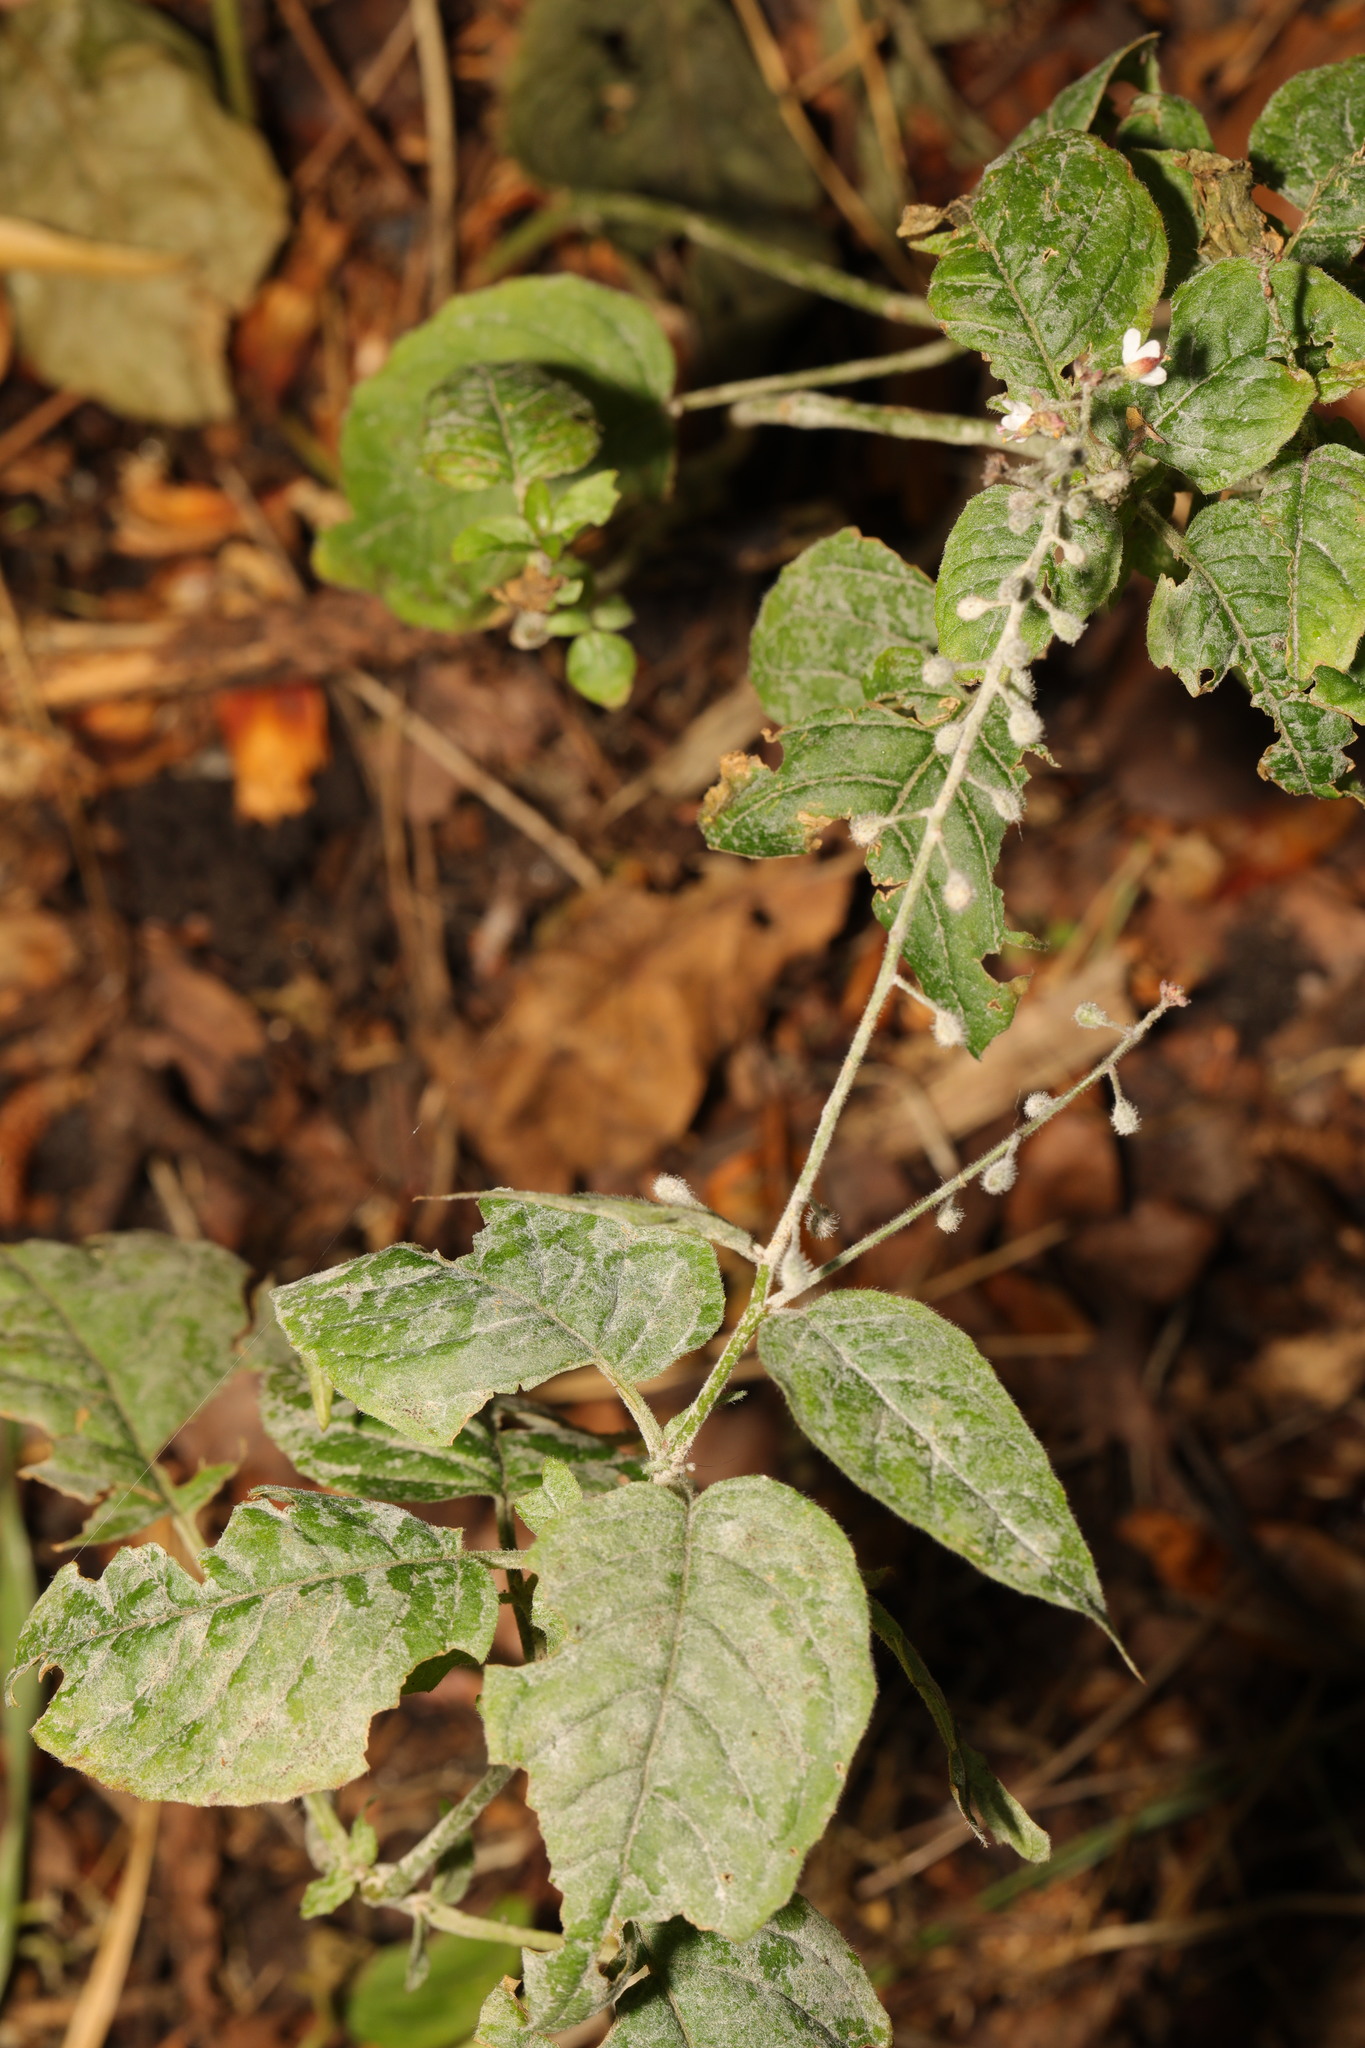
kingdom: Plantae
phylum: Tracheophyta
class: Magnoliopsida
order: Myrtales
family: Onagraceae
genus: Circaea
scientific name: Circaea lutetiana
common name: Enchanter's-nightshade
